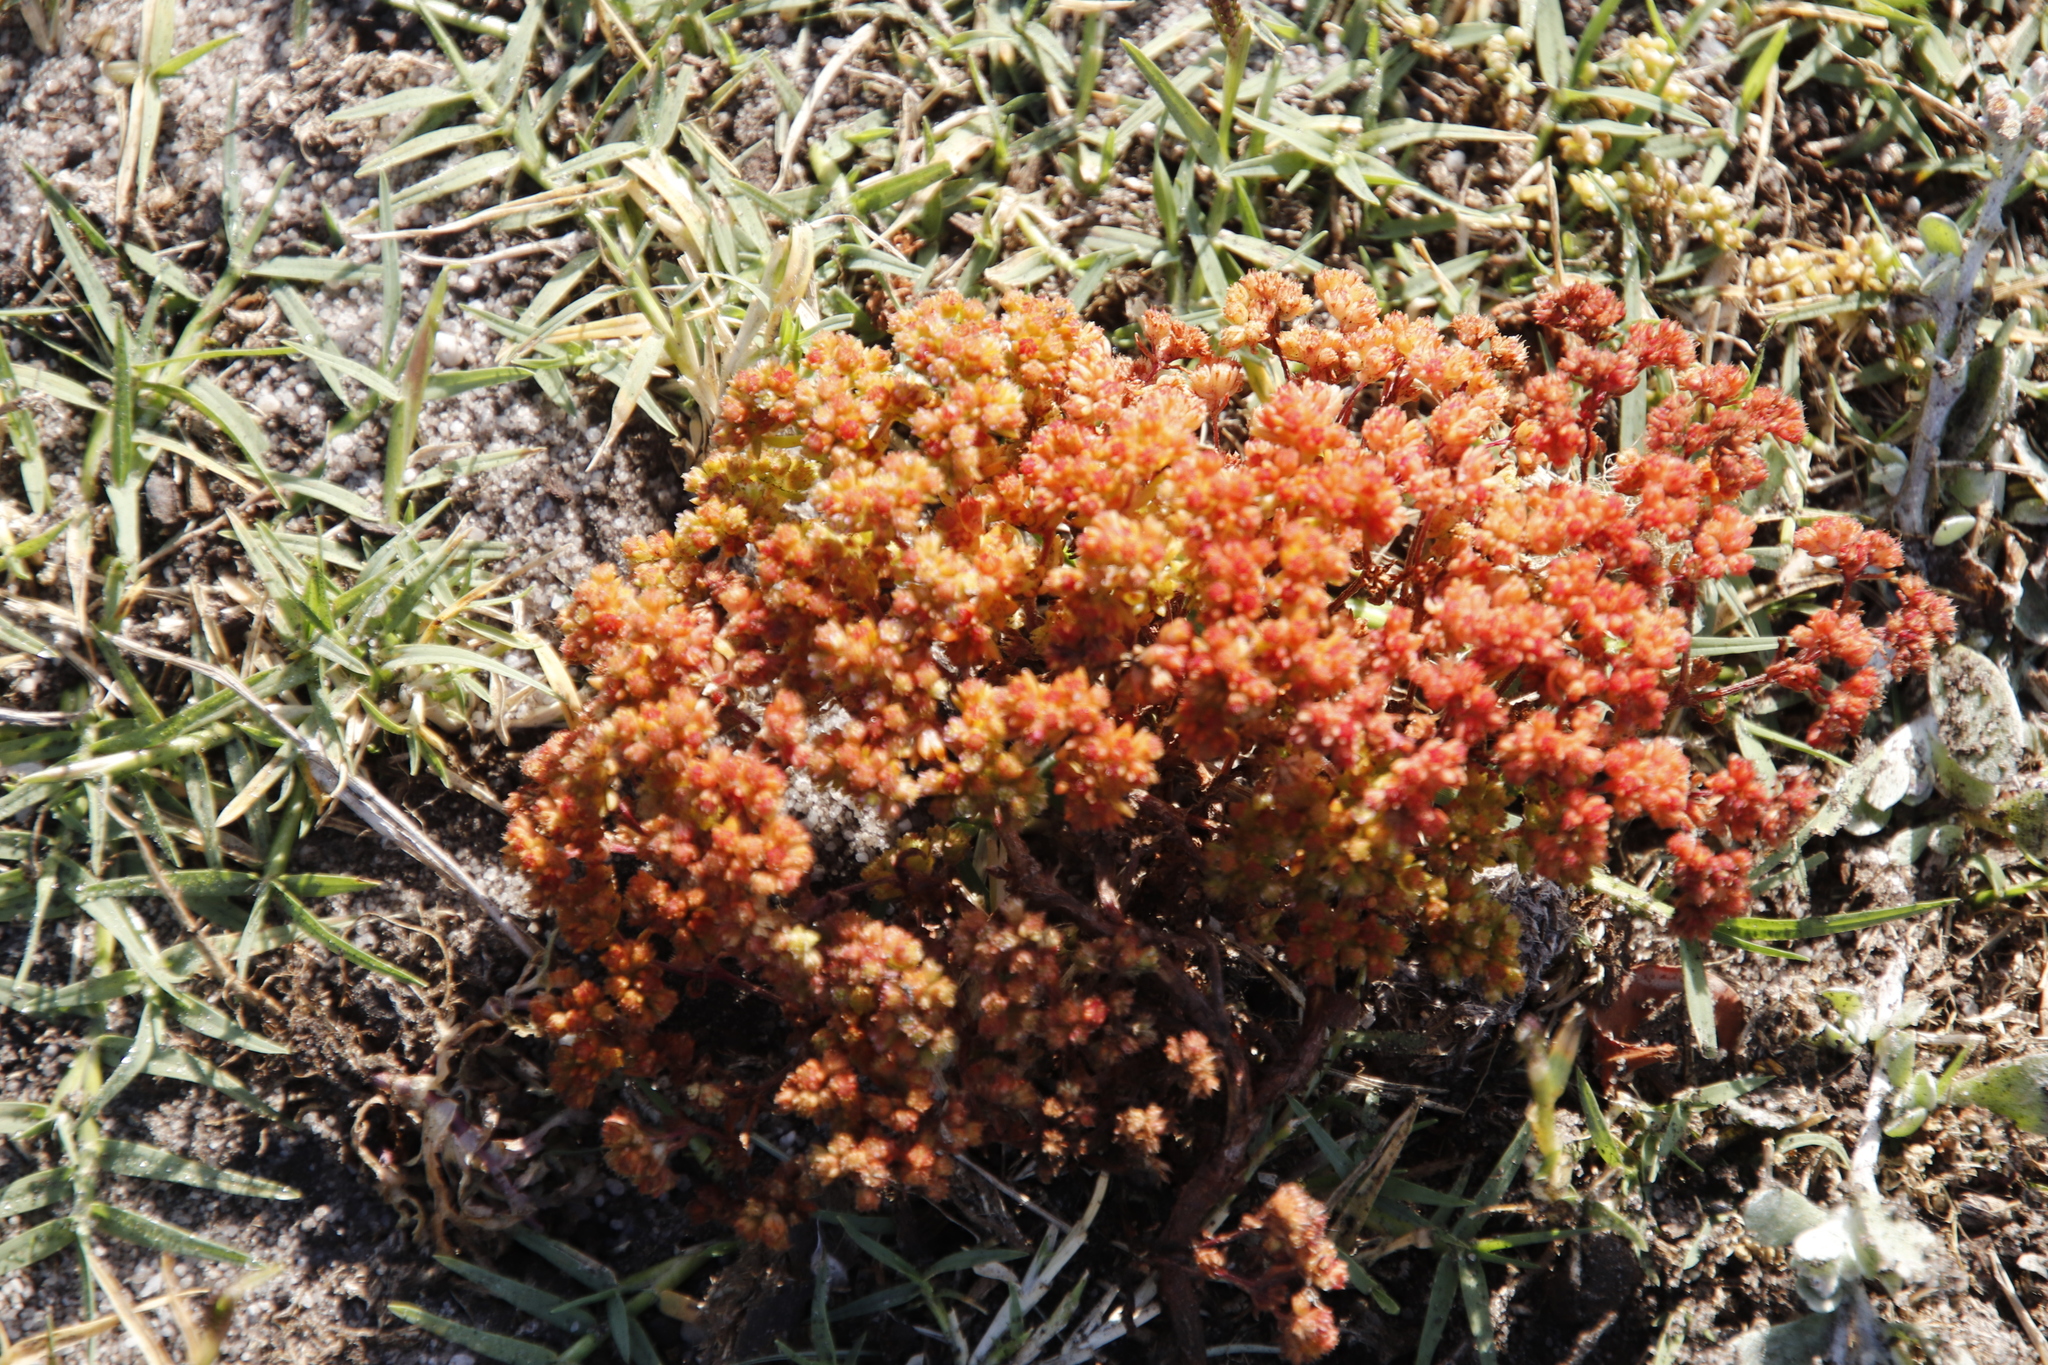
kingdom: Plantae
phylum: Tracheophyta
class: Magnoliopsida
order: Saxifragales
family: Crassulaceae
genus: Crassula
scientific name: Crassula glomerata
